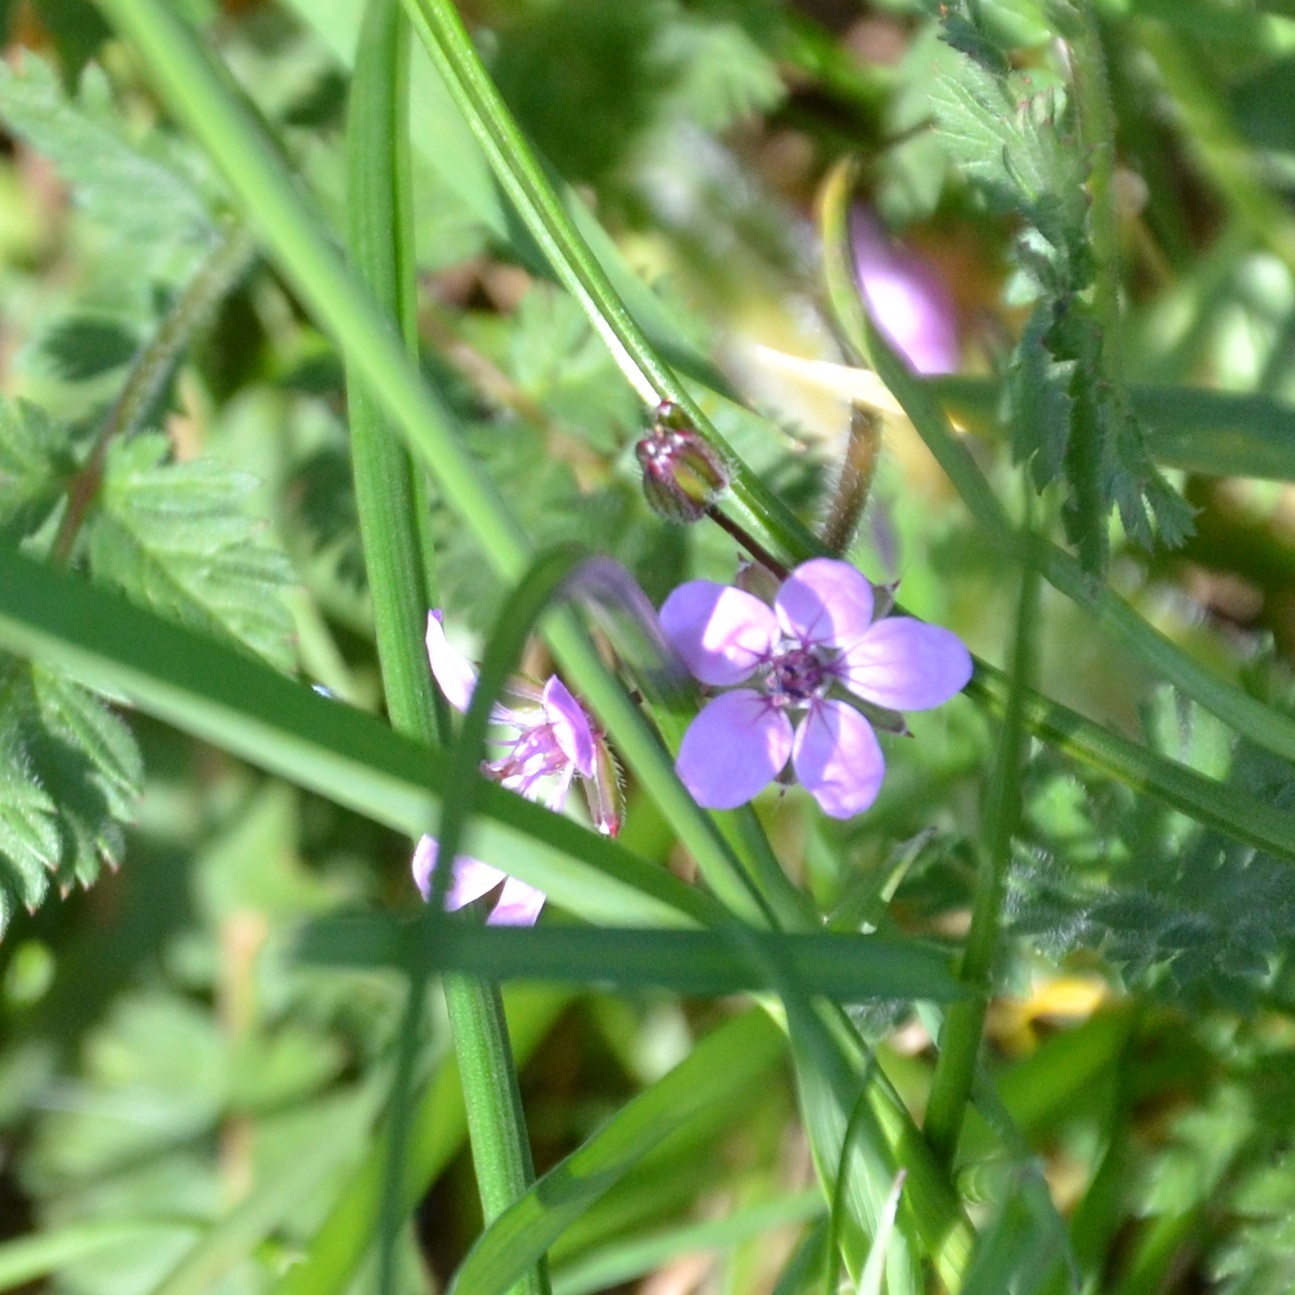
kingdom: Plantae
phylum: Tracheophyta
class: Magnoliopsida
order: Geraniales
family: Geraniaceae
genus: Erodium
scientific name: Erodium cicutarium
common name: Common stork's-bill
